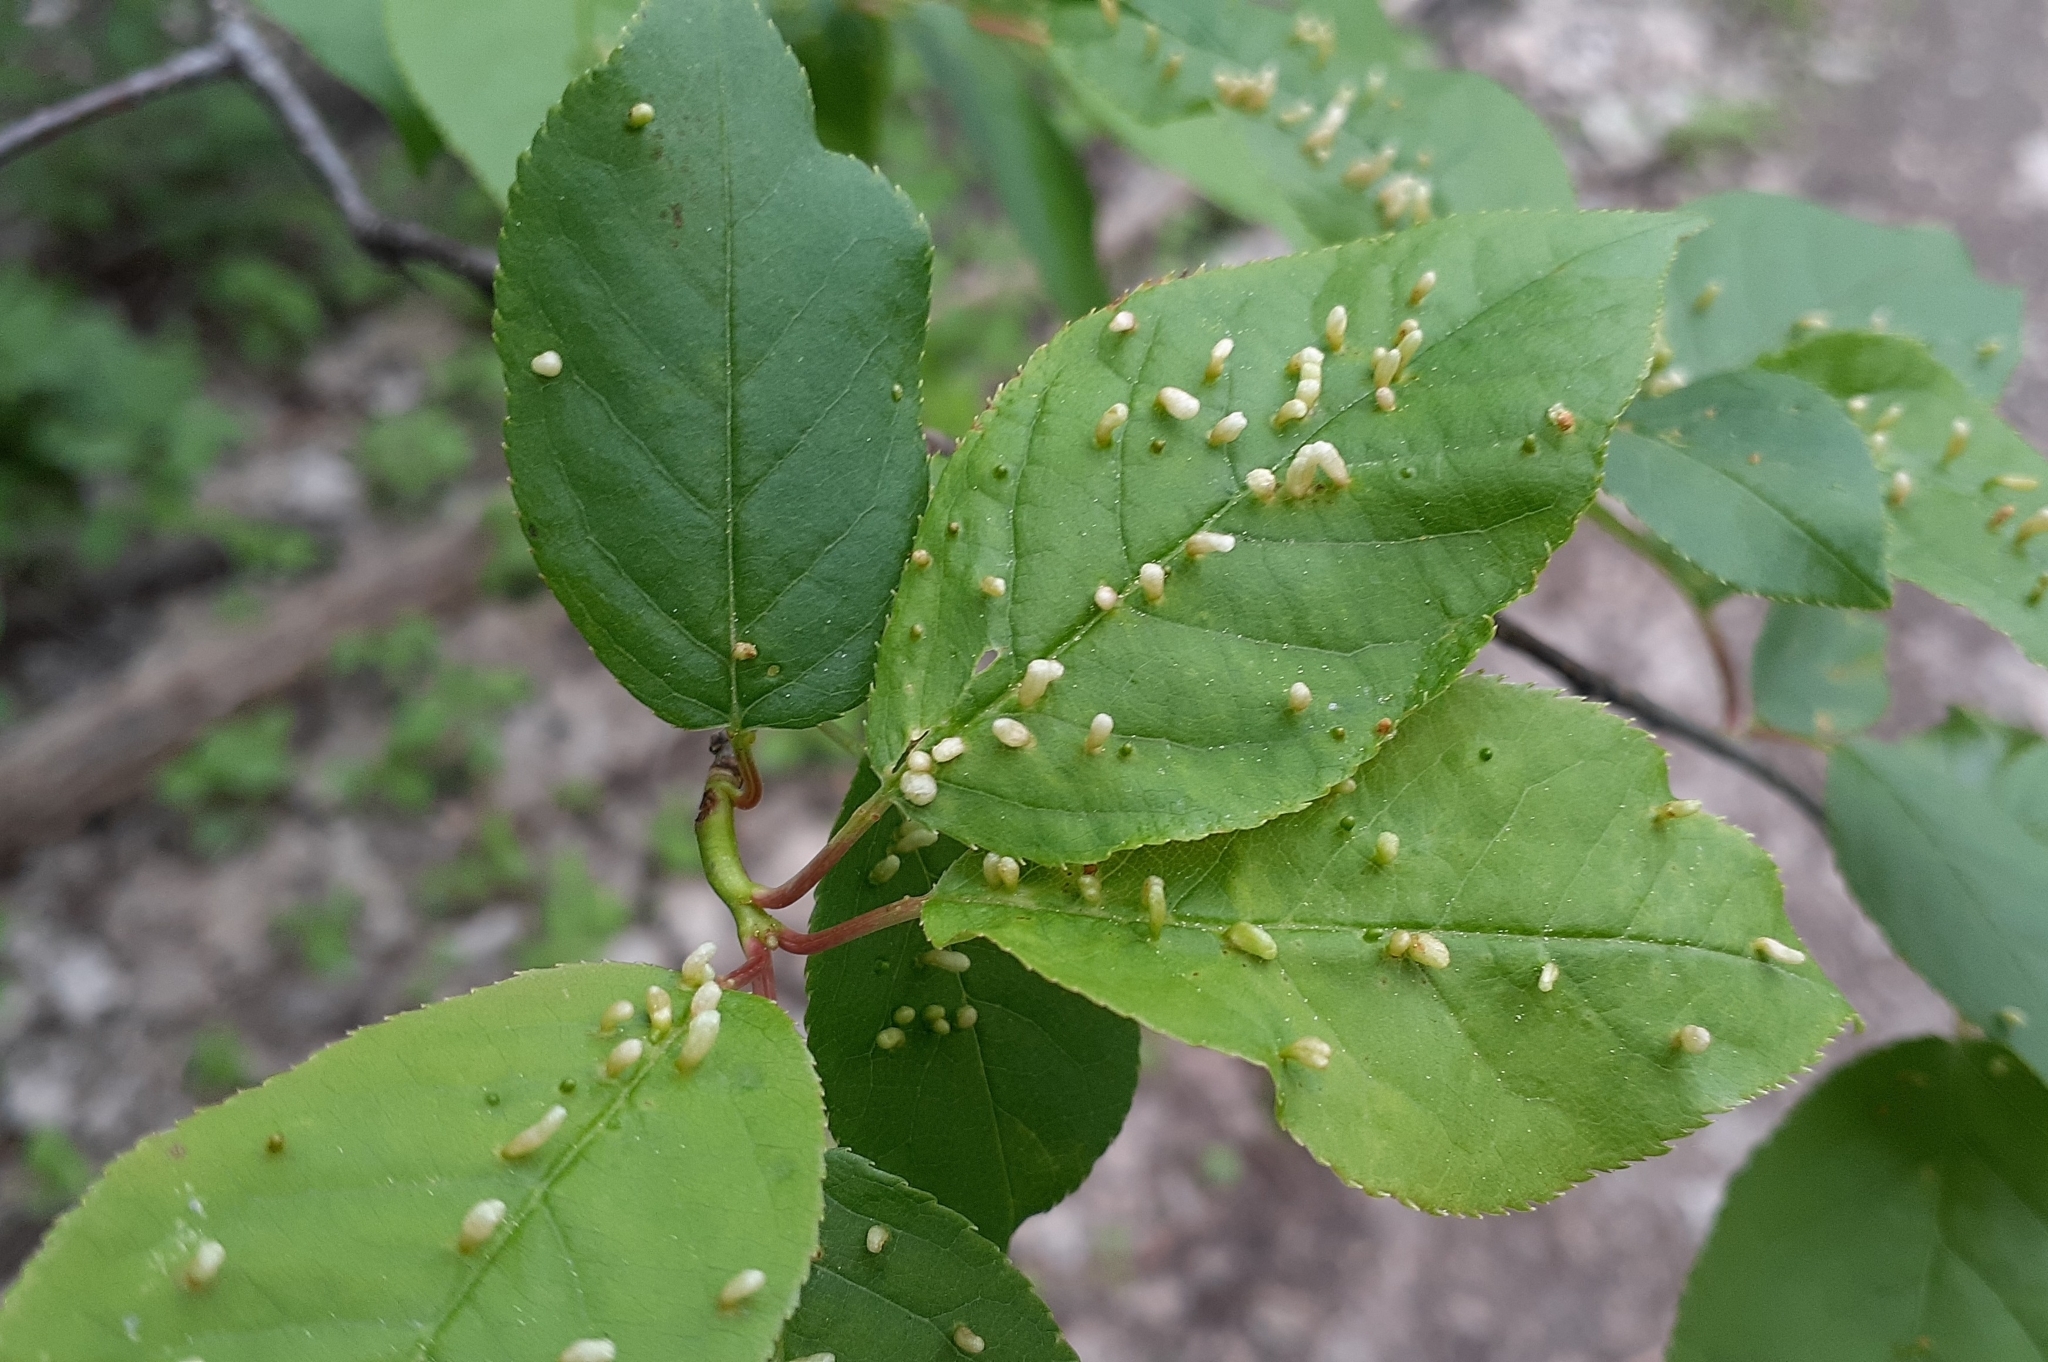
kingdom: Animalia
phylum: Arthropoda
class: Arachnida
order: Trombidiformes
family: Eriophyidae
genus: Eriophyes
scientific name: Eriophyes emarginatae
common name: Plum leaf gall mite
